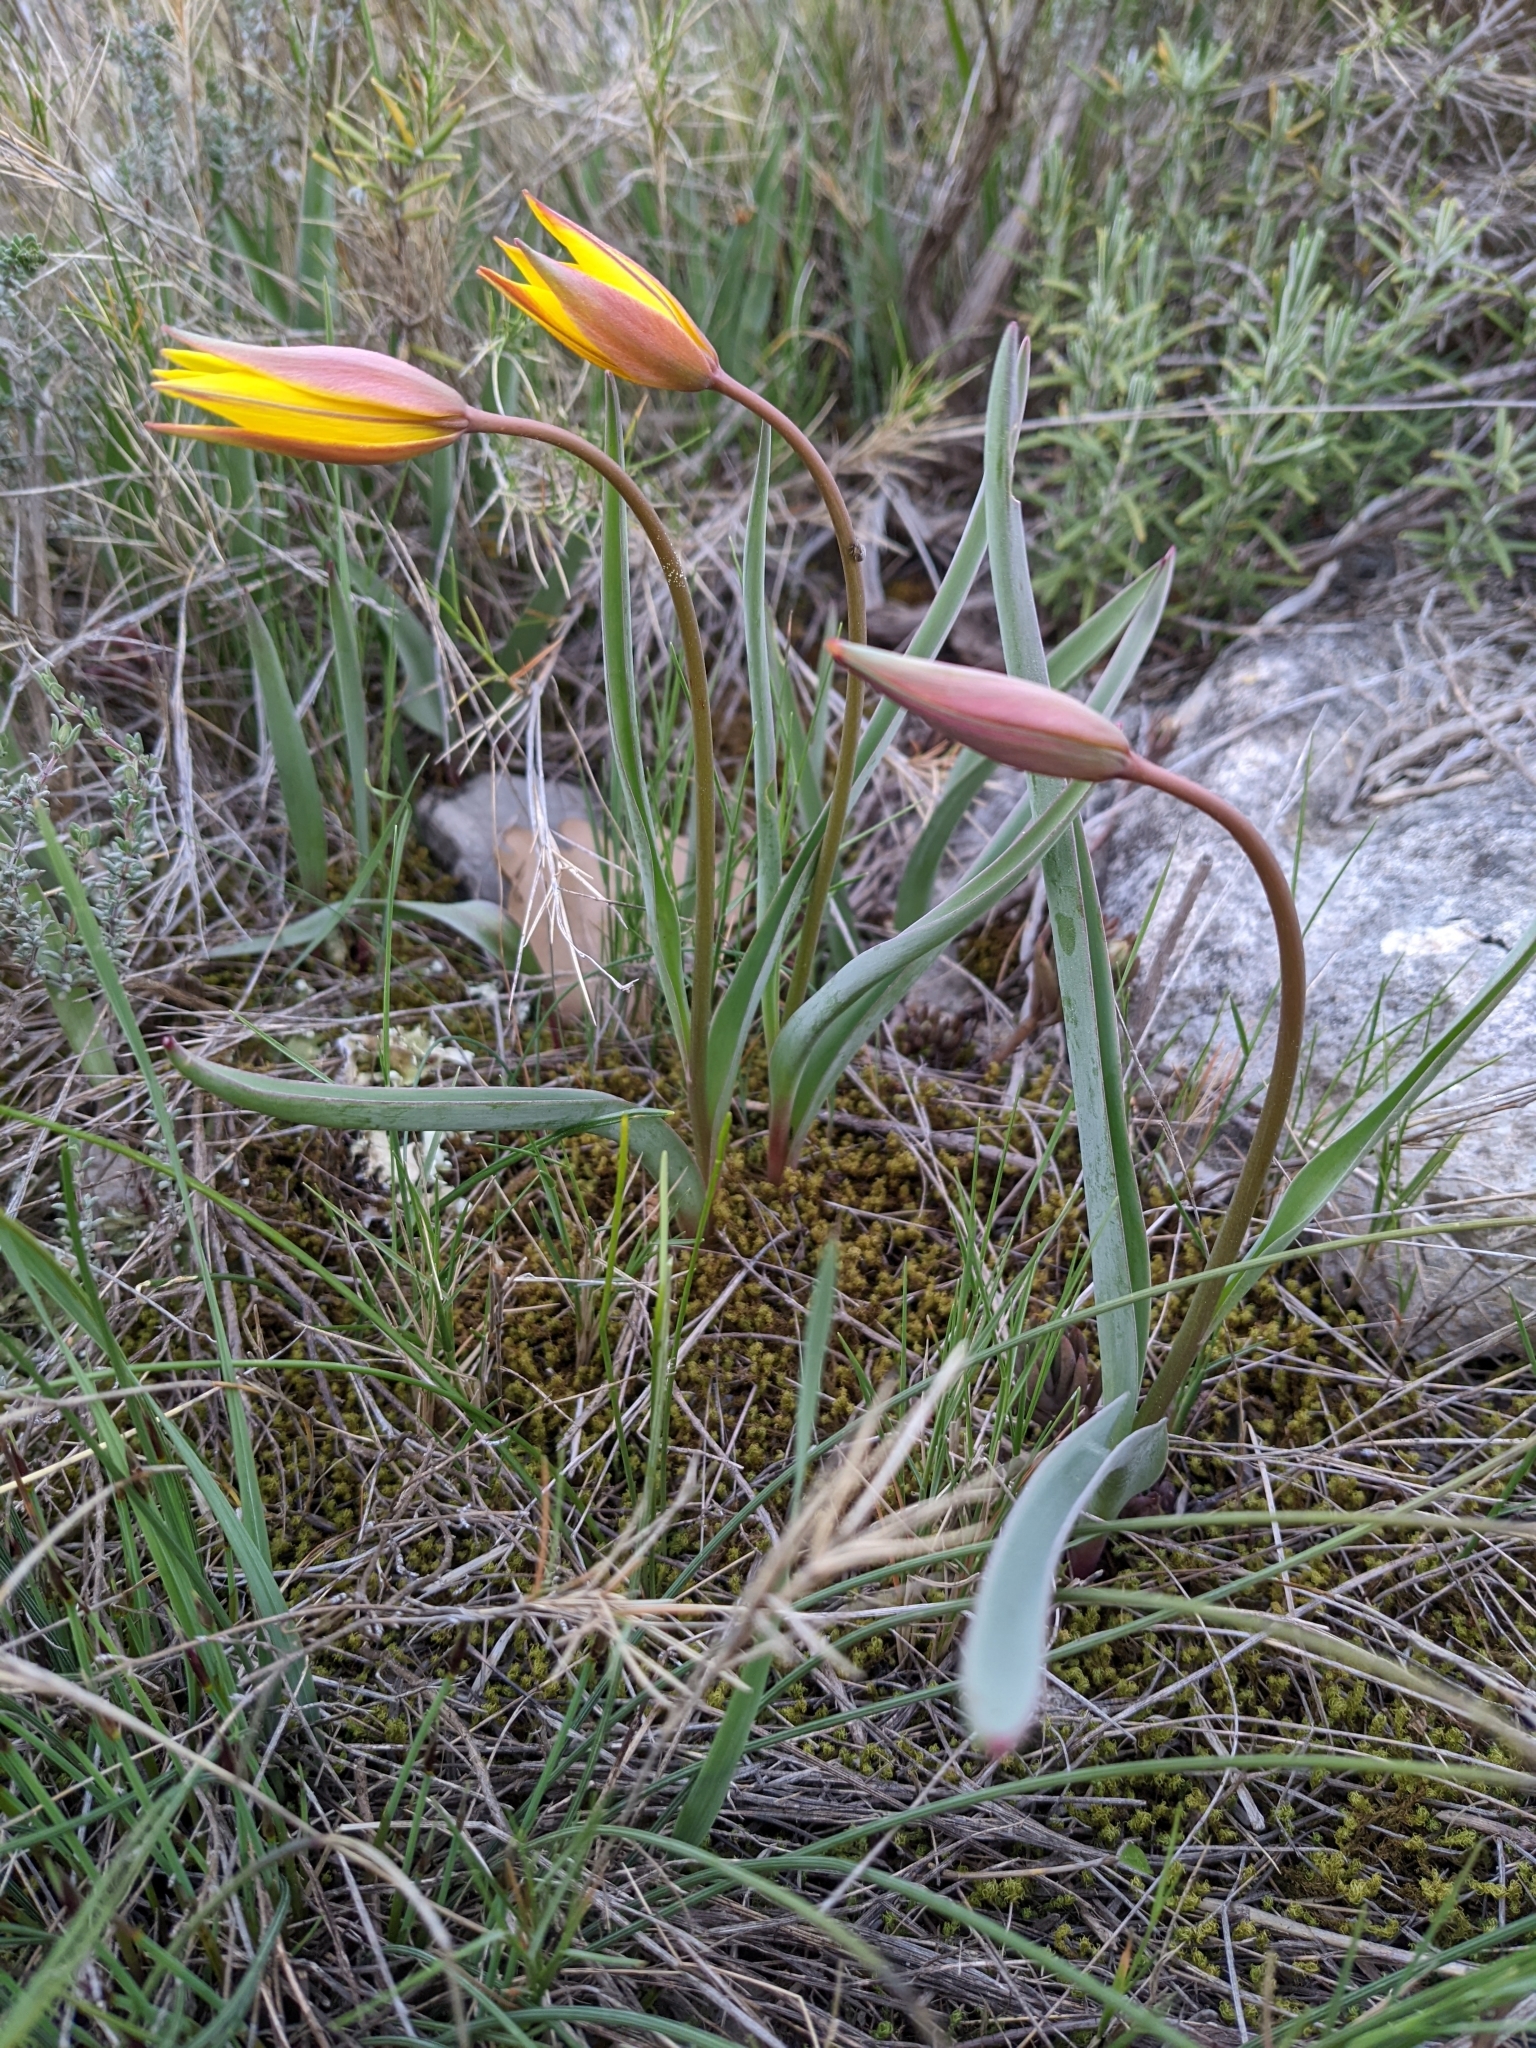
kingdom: Plantae
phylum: Tracheophyta
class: Liliopsida
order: Liliales
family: Liliaceae
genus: Tulipa
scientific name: Tulipa sylvestris
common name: Wild tulip
